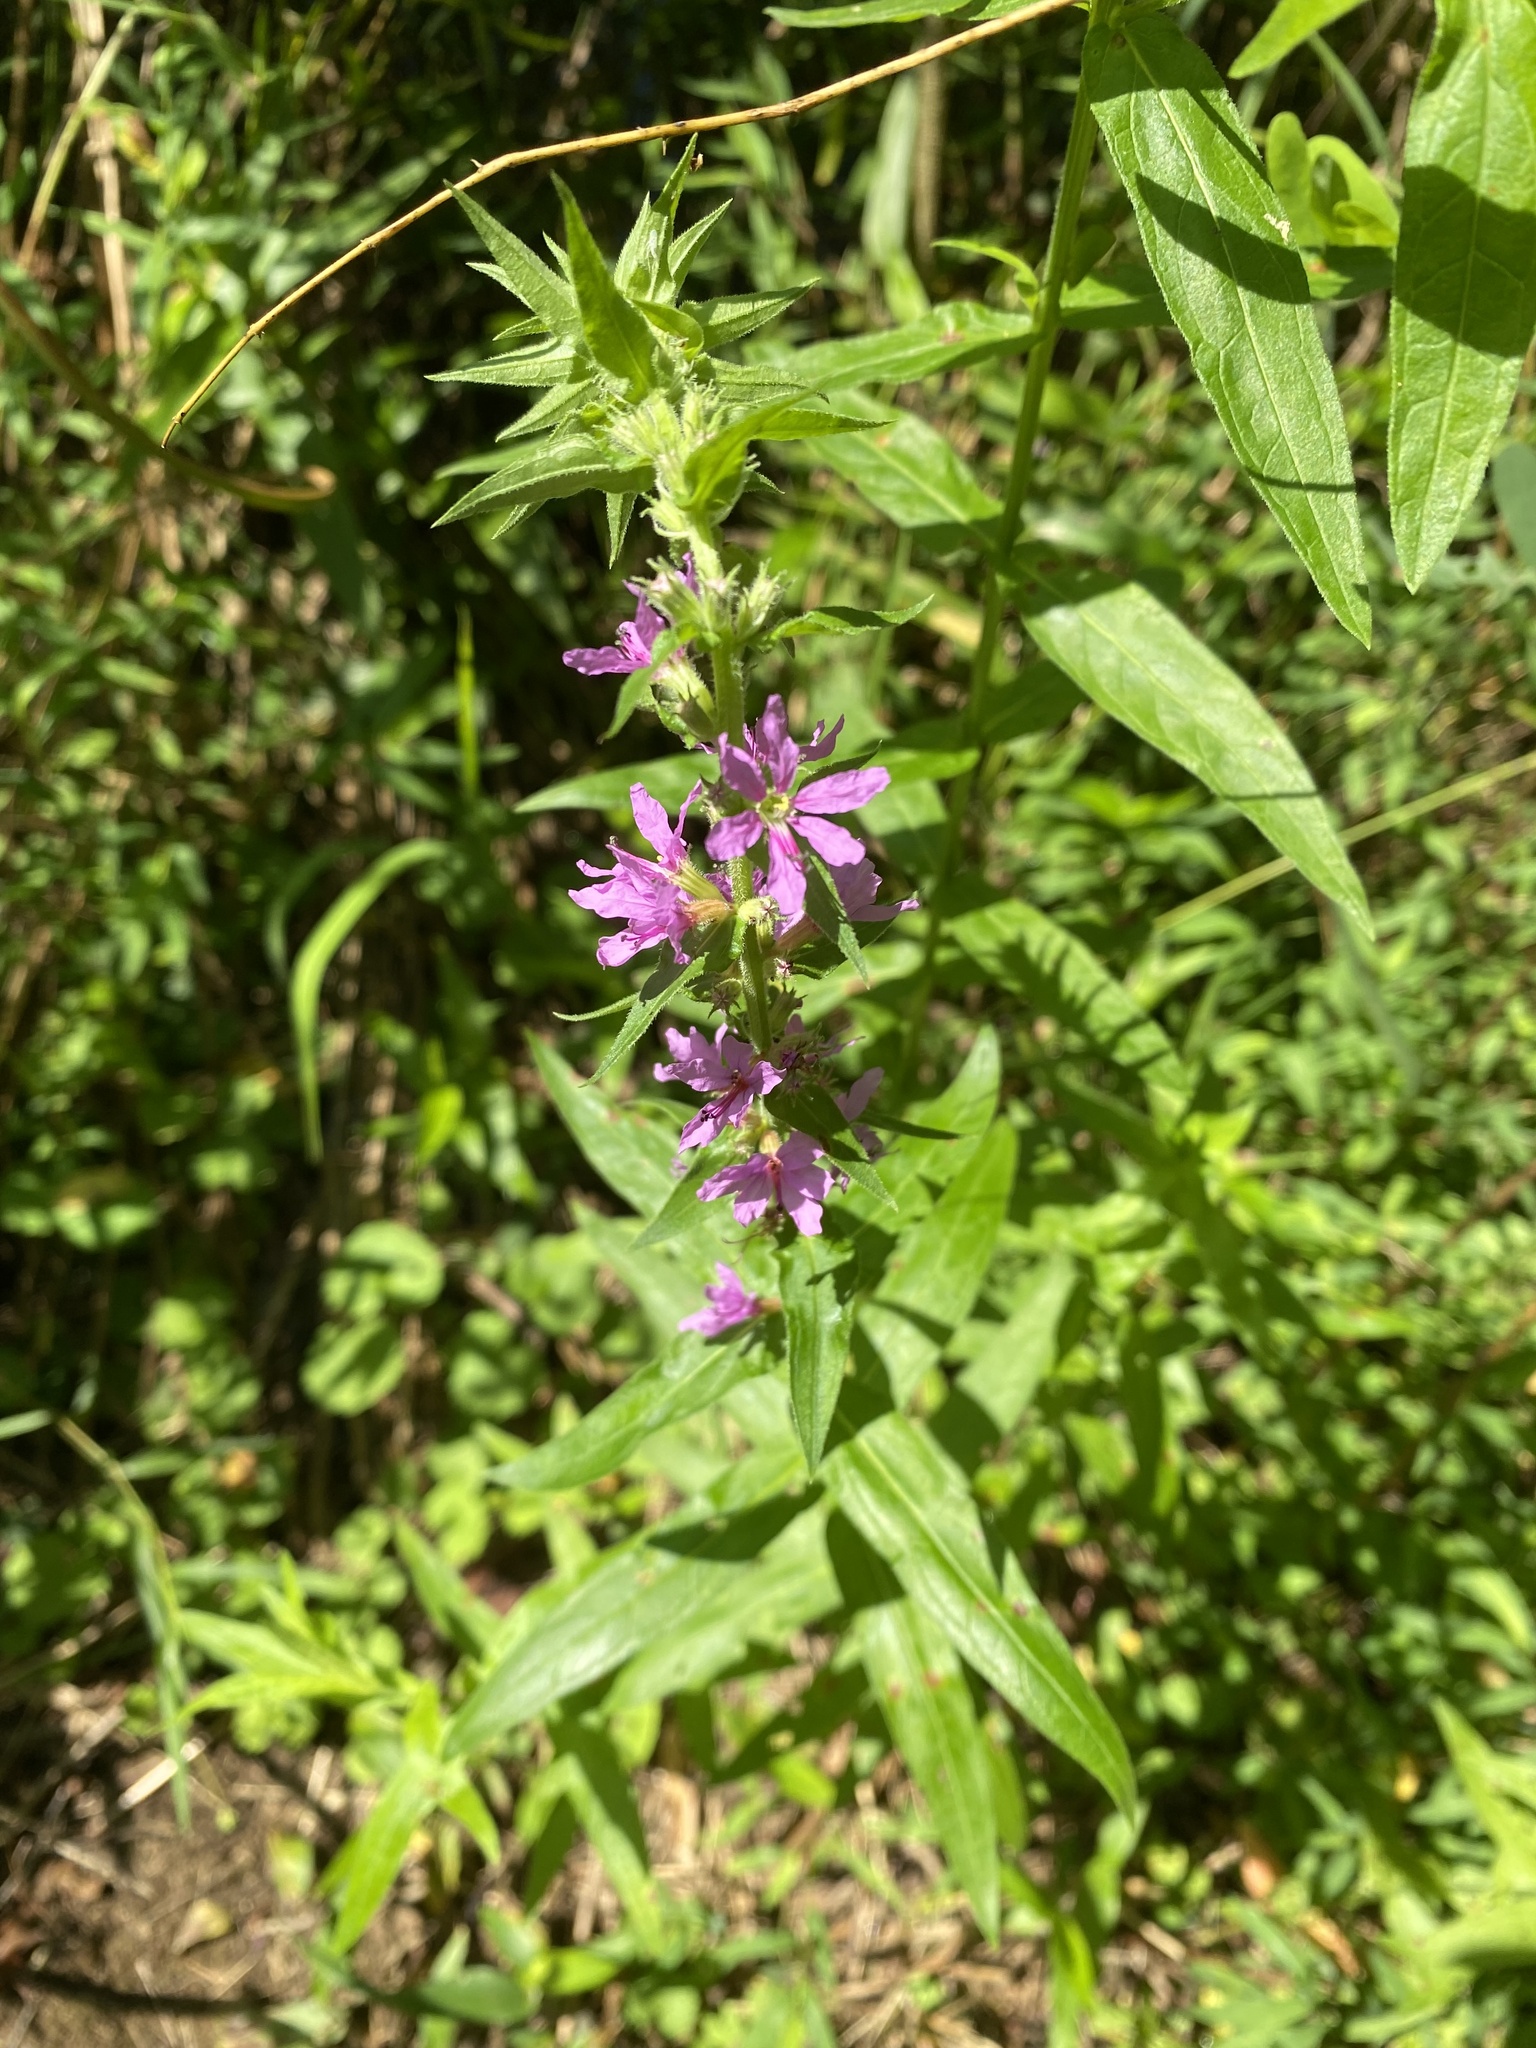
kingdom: Plantae
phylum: Tracheophyta
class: Magnoliopsida
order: Myrtales
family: Lythraceae
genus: Lythrum
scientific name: Lythrum salicaria
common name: Purple loosestrife
